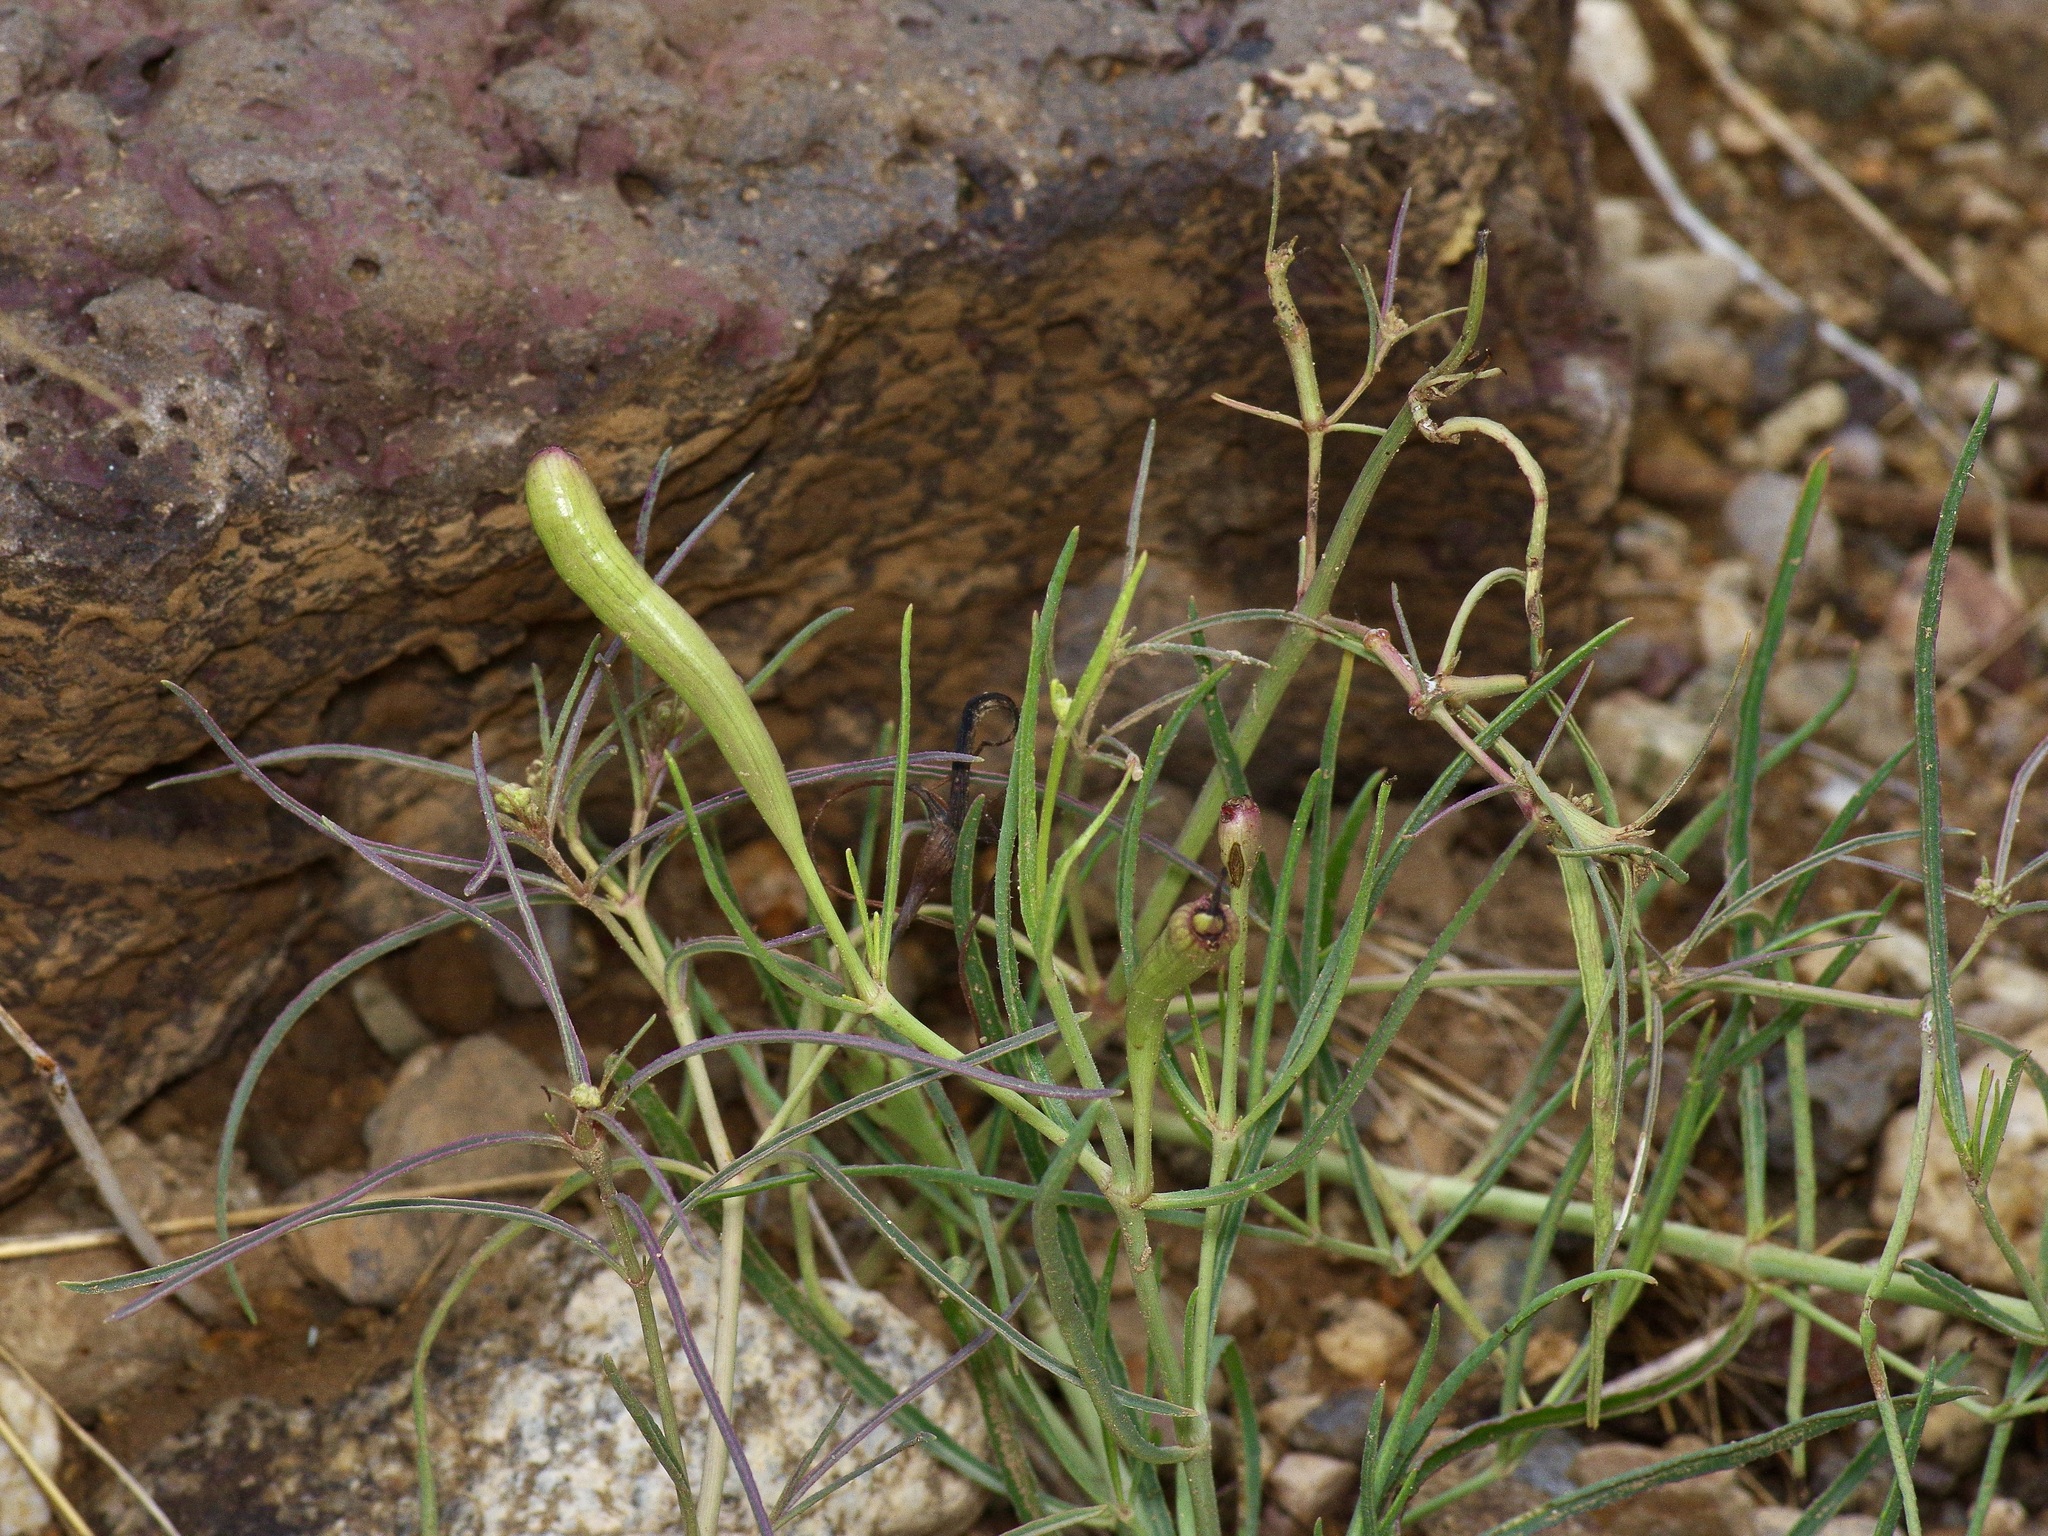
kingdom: Animalia
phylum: Arthropoda
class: Insecta
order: Diptera
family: Cecidomyiidae
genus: Neolasioptera
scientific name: Neolasioptera allioniae
